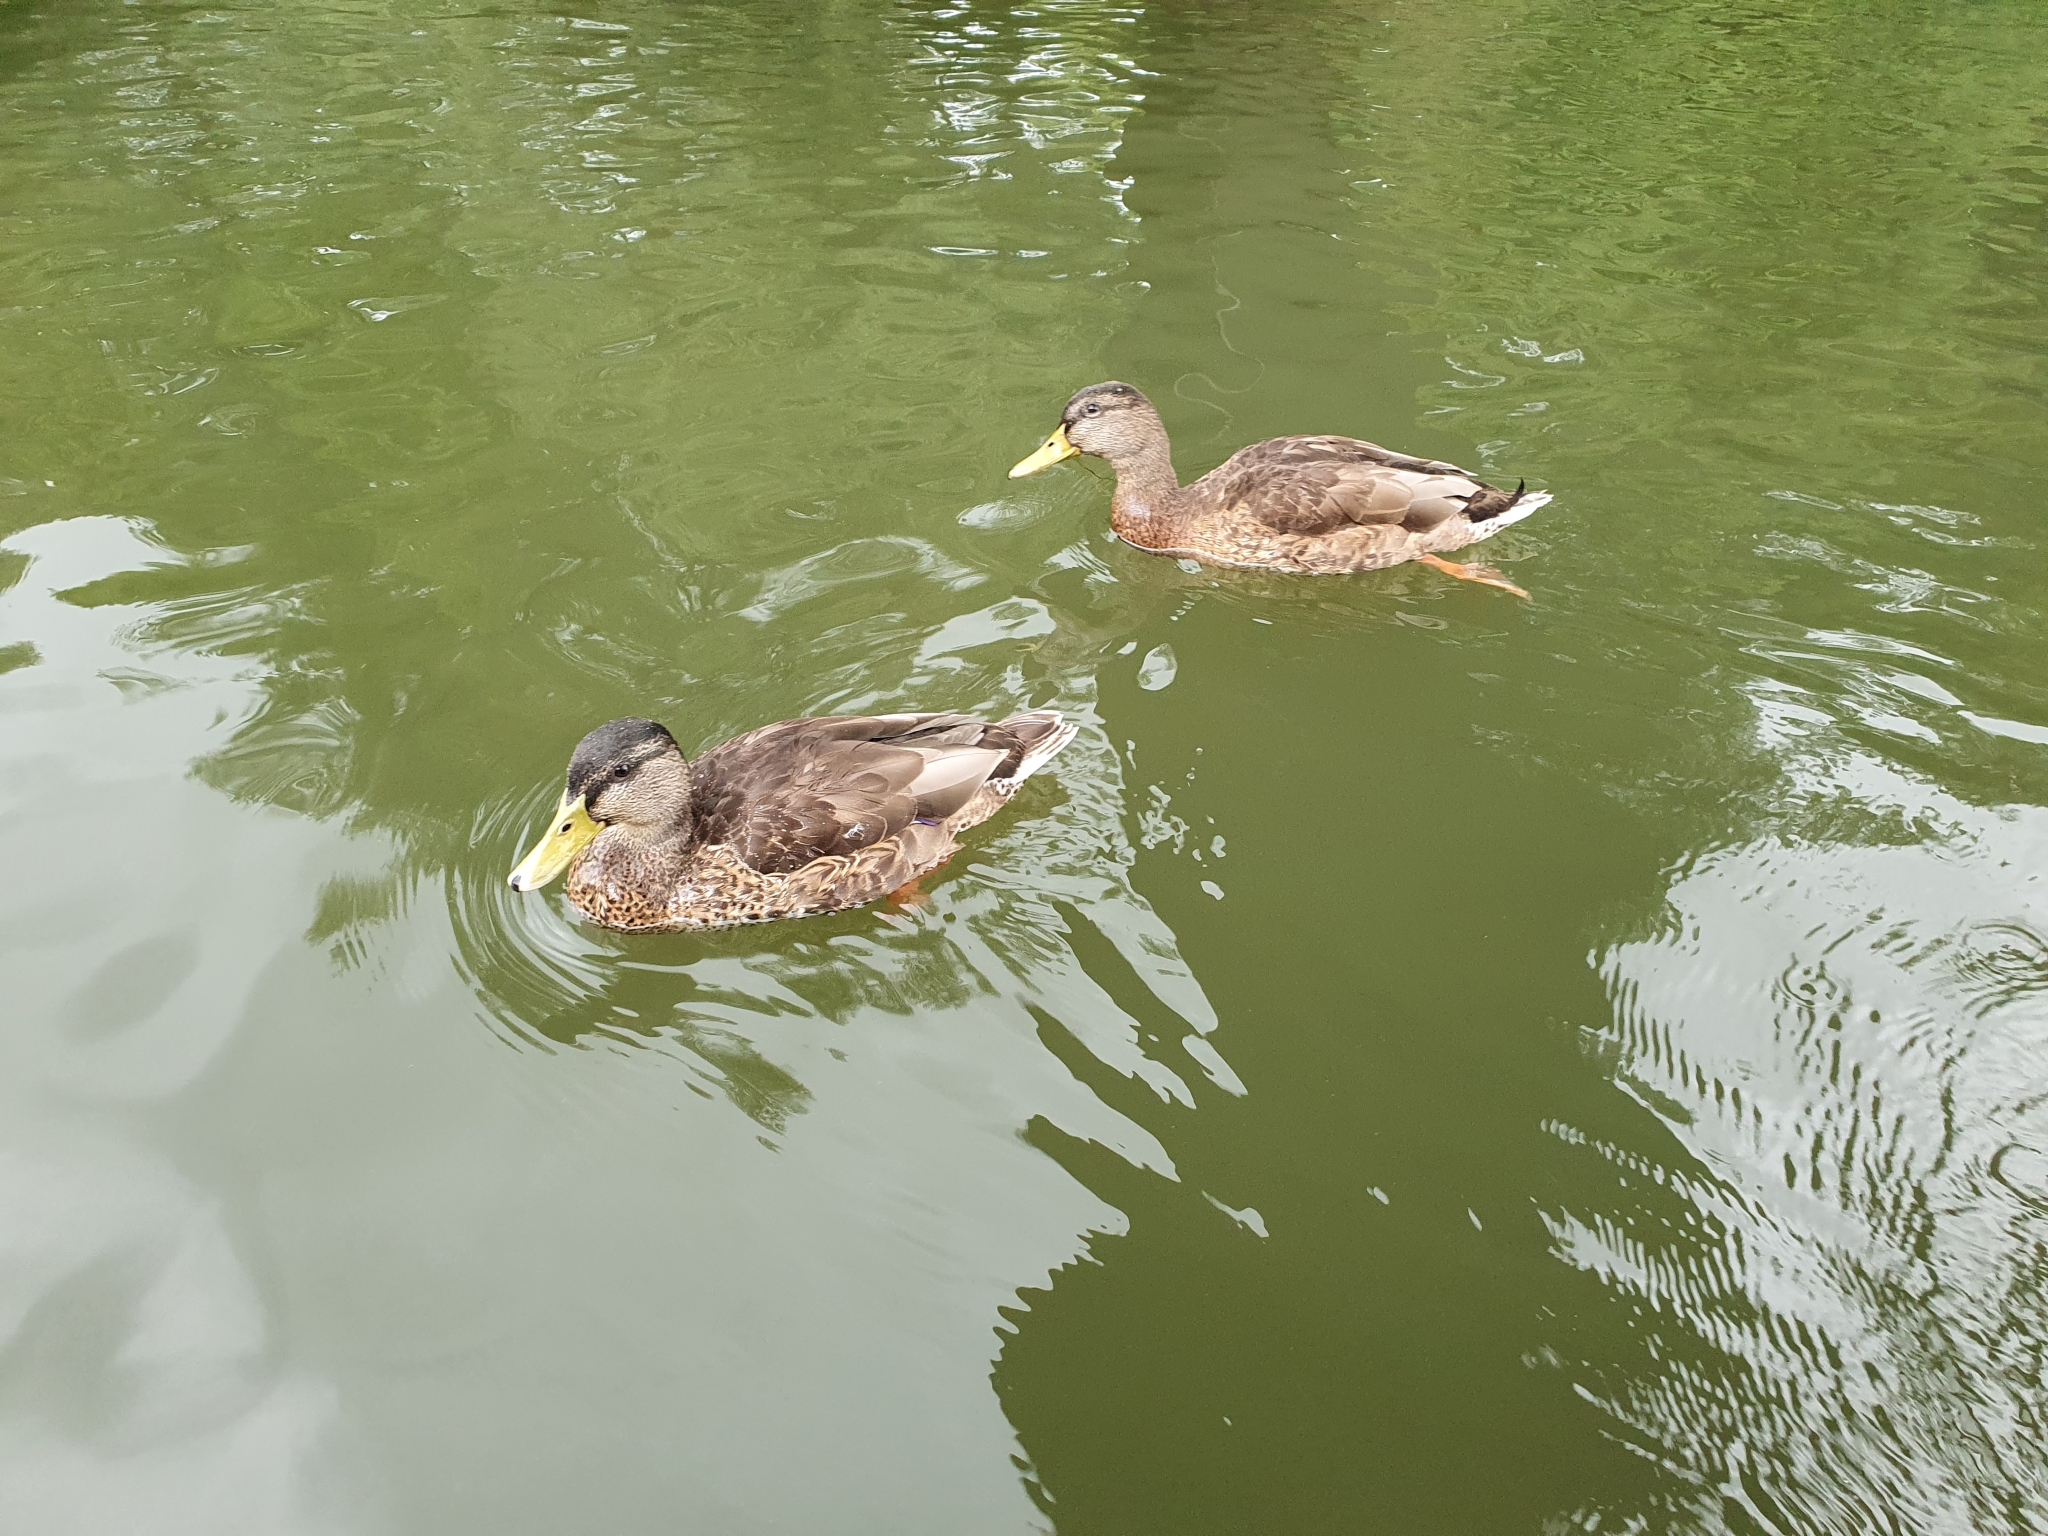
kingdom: Animalia
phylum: Chordata
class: Aves
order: Anseriformes
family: Anatidae
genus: Anas
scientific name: Anas platyrhynchos
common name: Mallard
